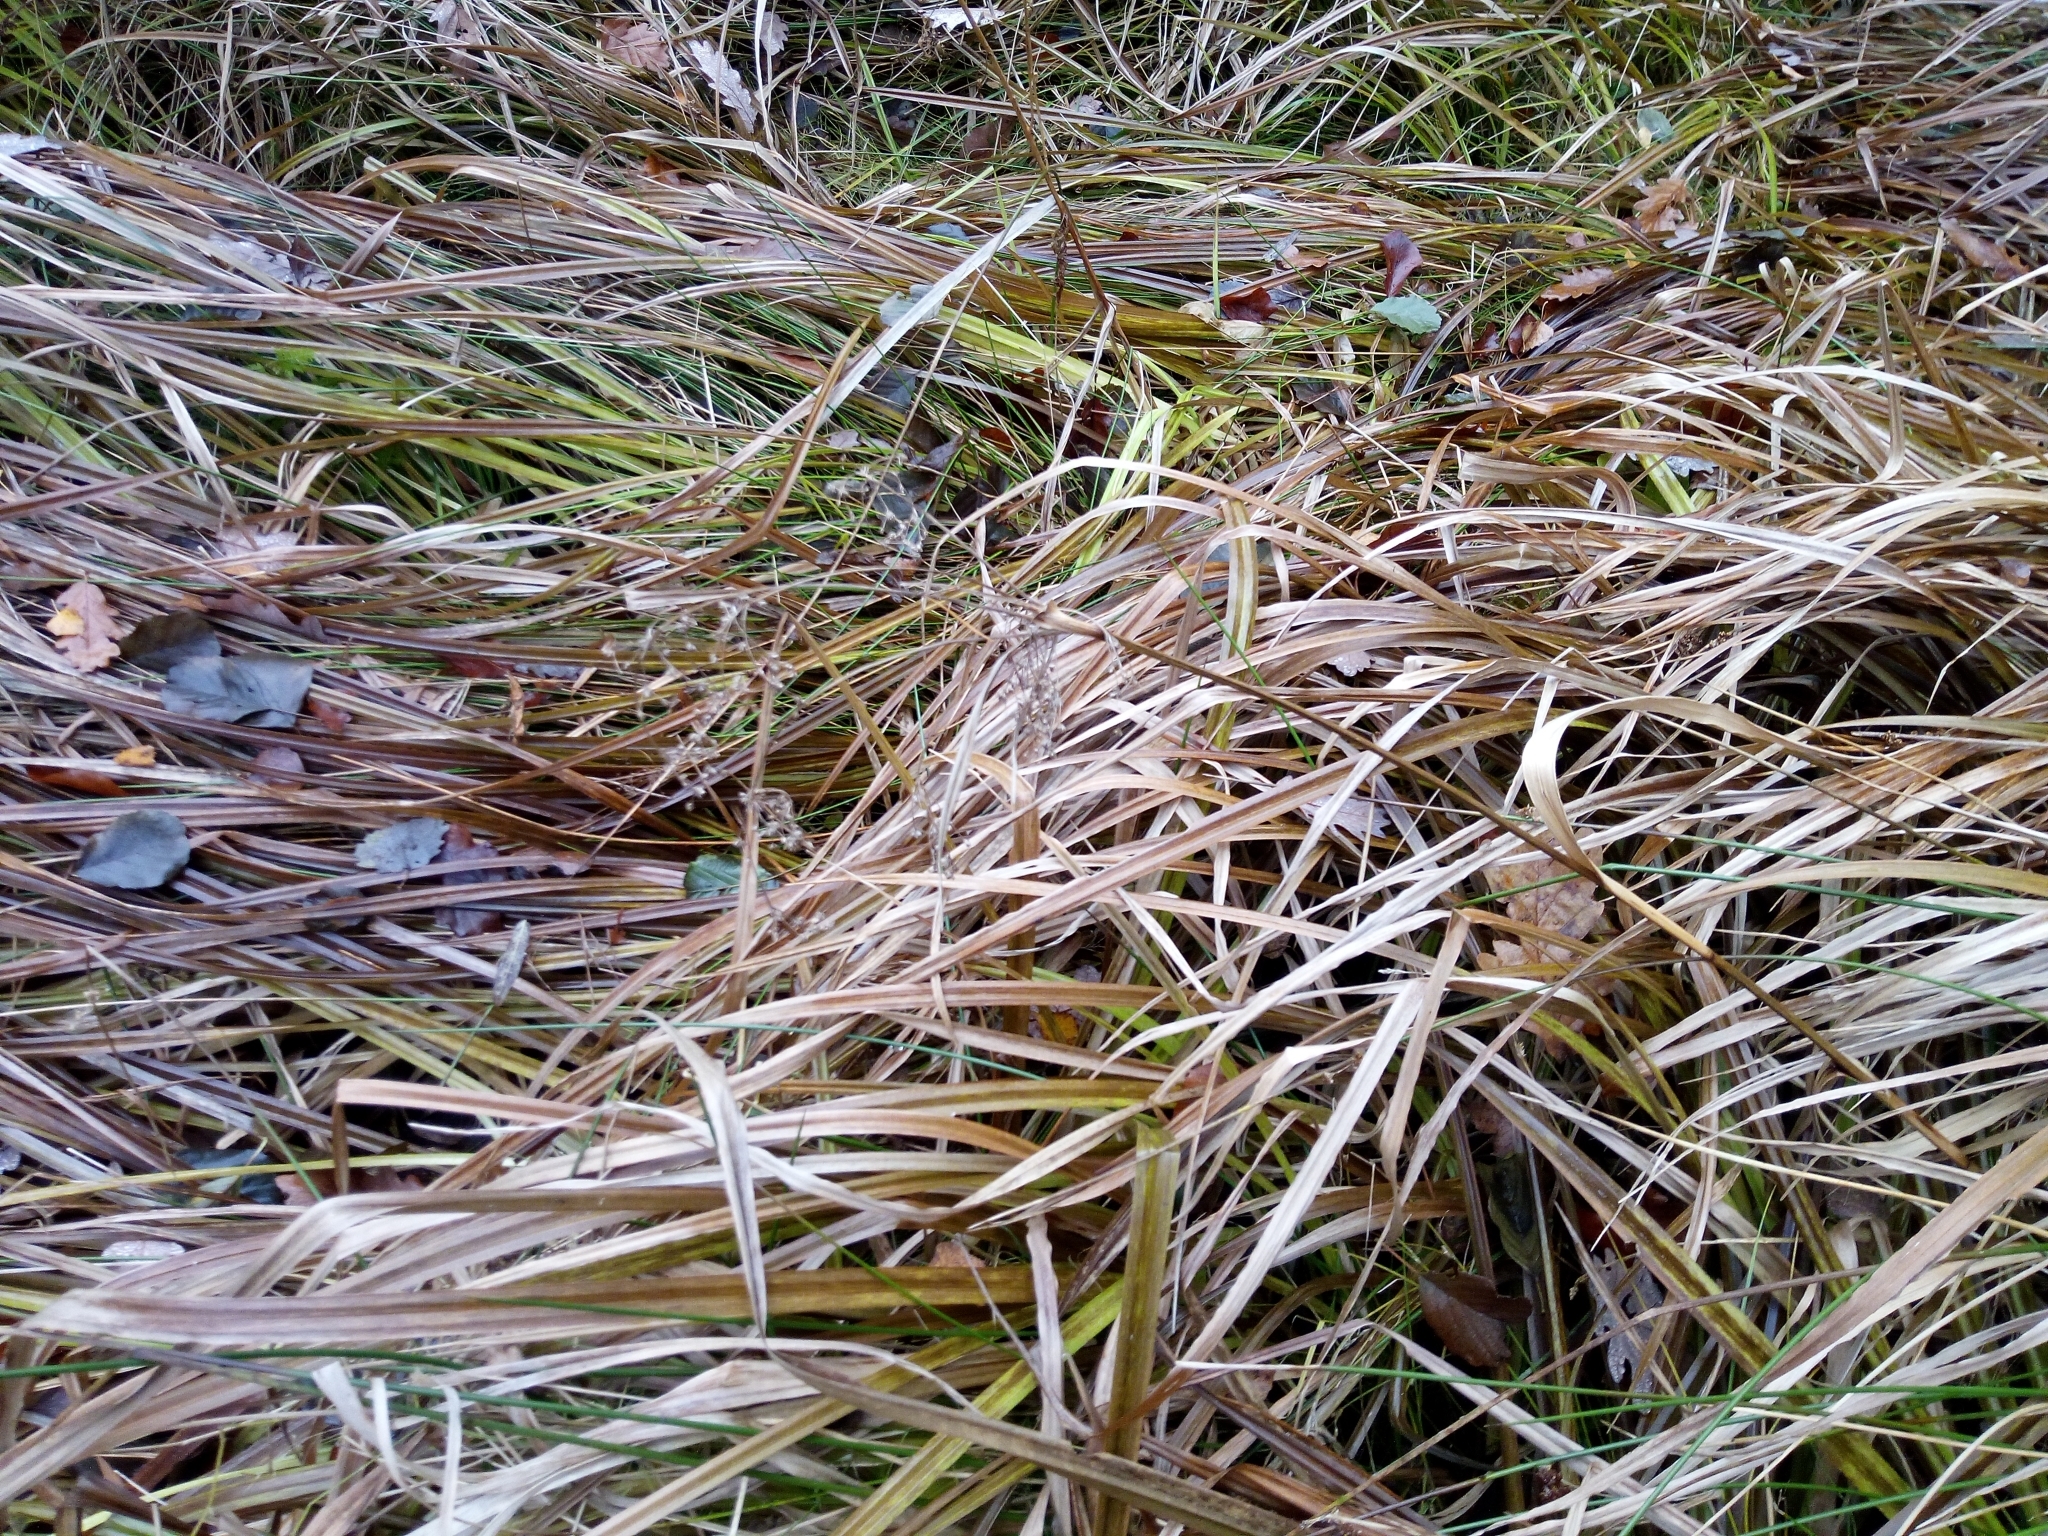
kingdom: Plantae
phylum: Tracheophyta
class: Liliopsida
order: Poales
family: Cyperaceae
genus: Scirpus
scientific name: Scirpus sylvaticus
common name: Wood club-rush
